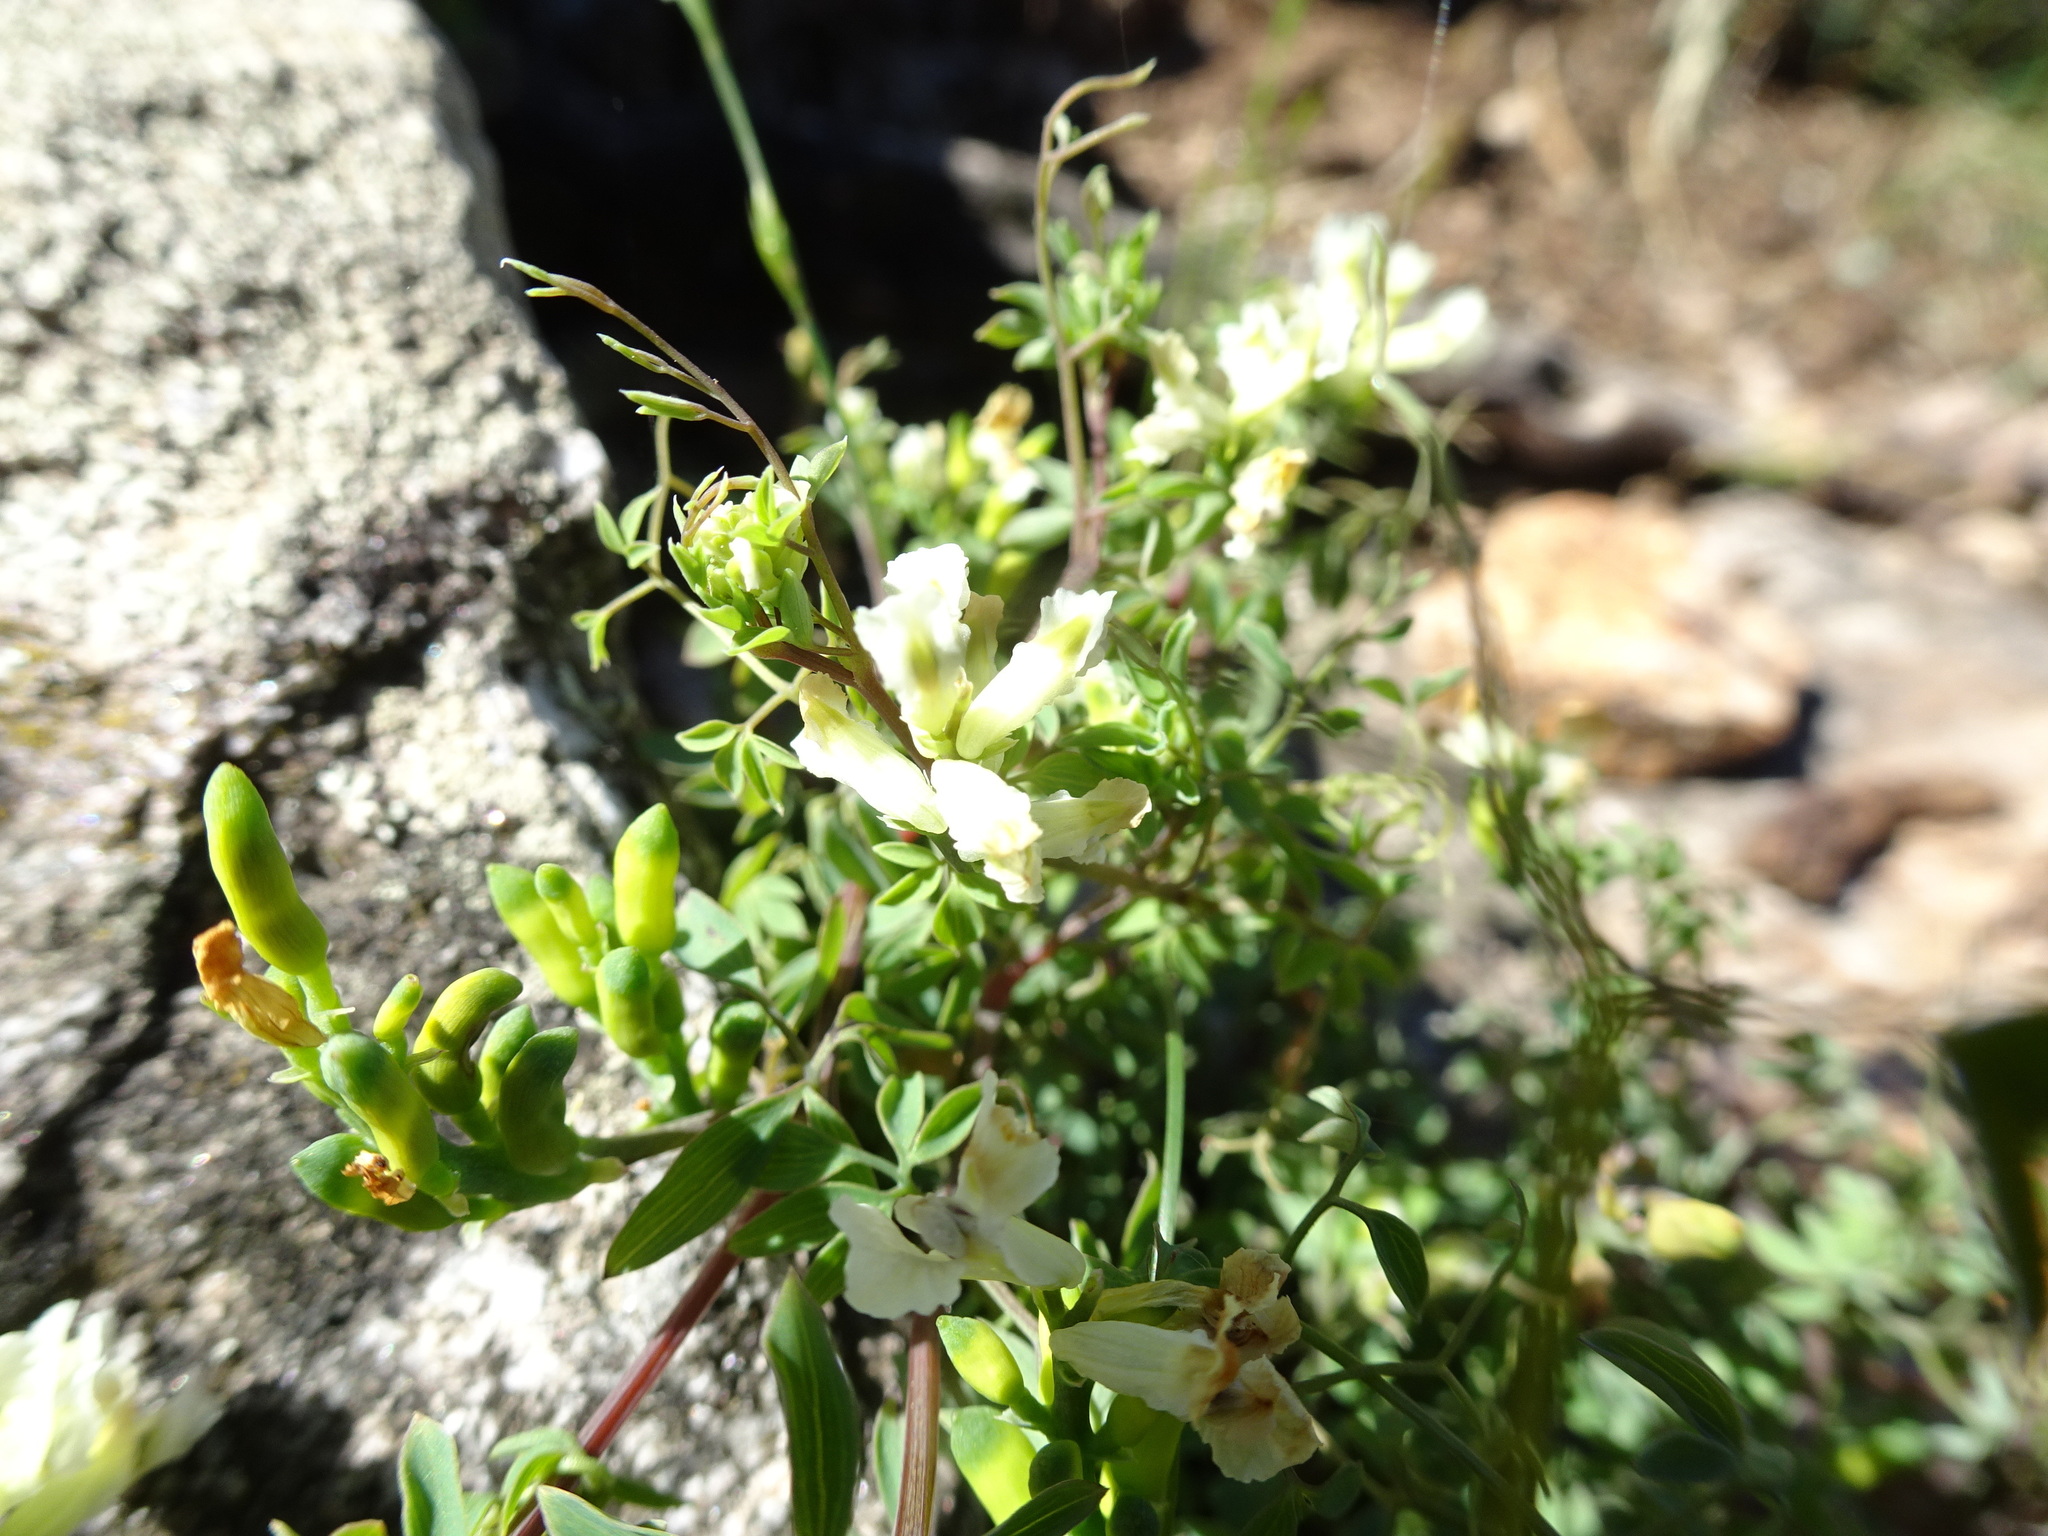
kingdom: Plantae
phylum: Tracheophyta
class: Magnoliopsida
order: Ranunculales
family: Papaveraceae
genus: Ceratocapnos
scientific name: Ceratocapnos claviculata
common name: Climbing corydalis
